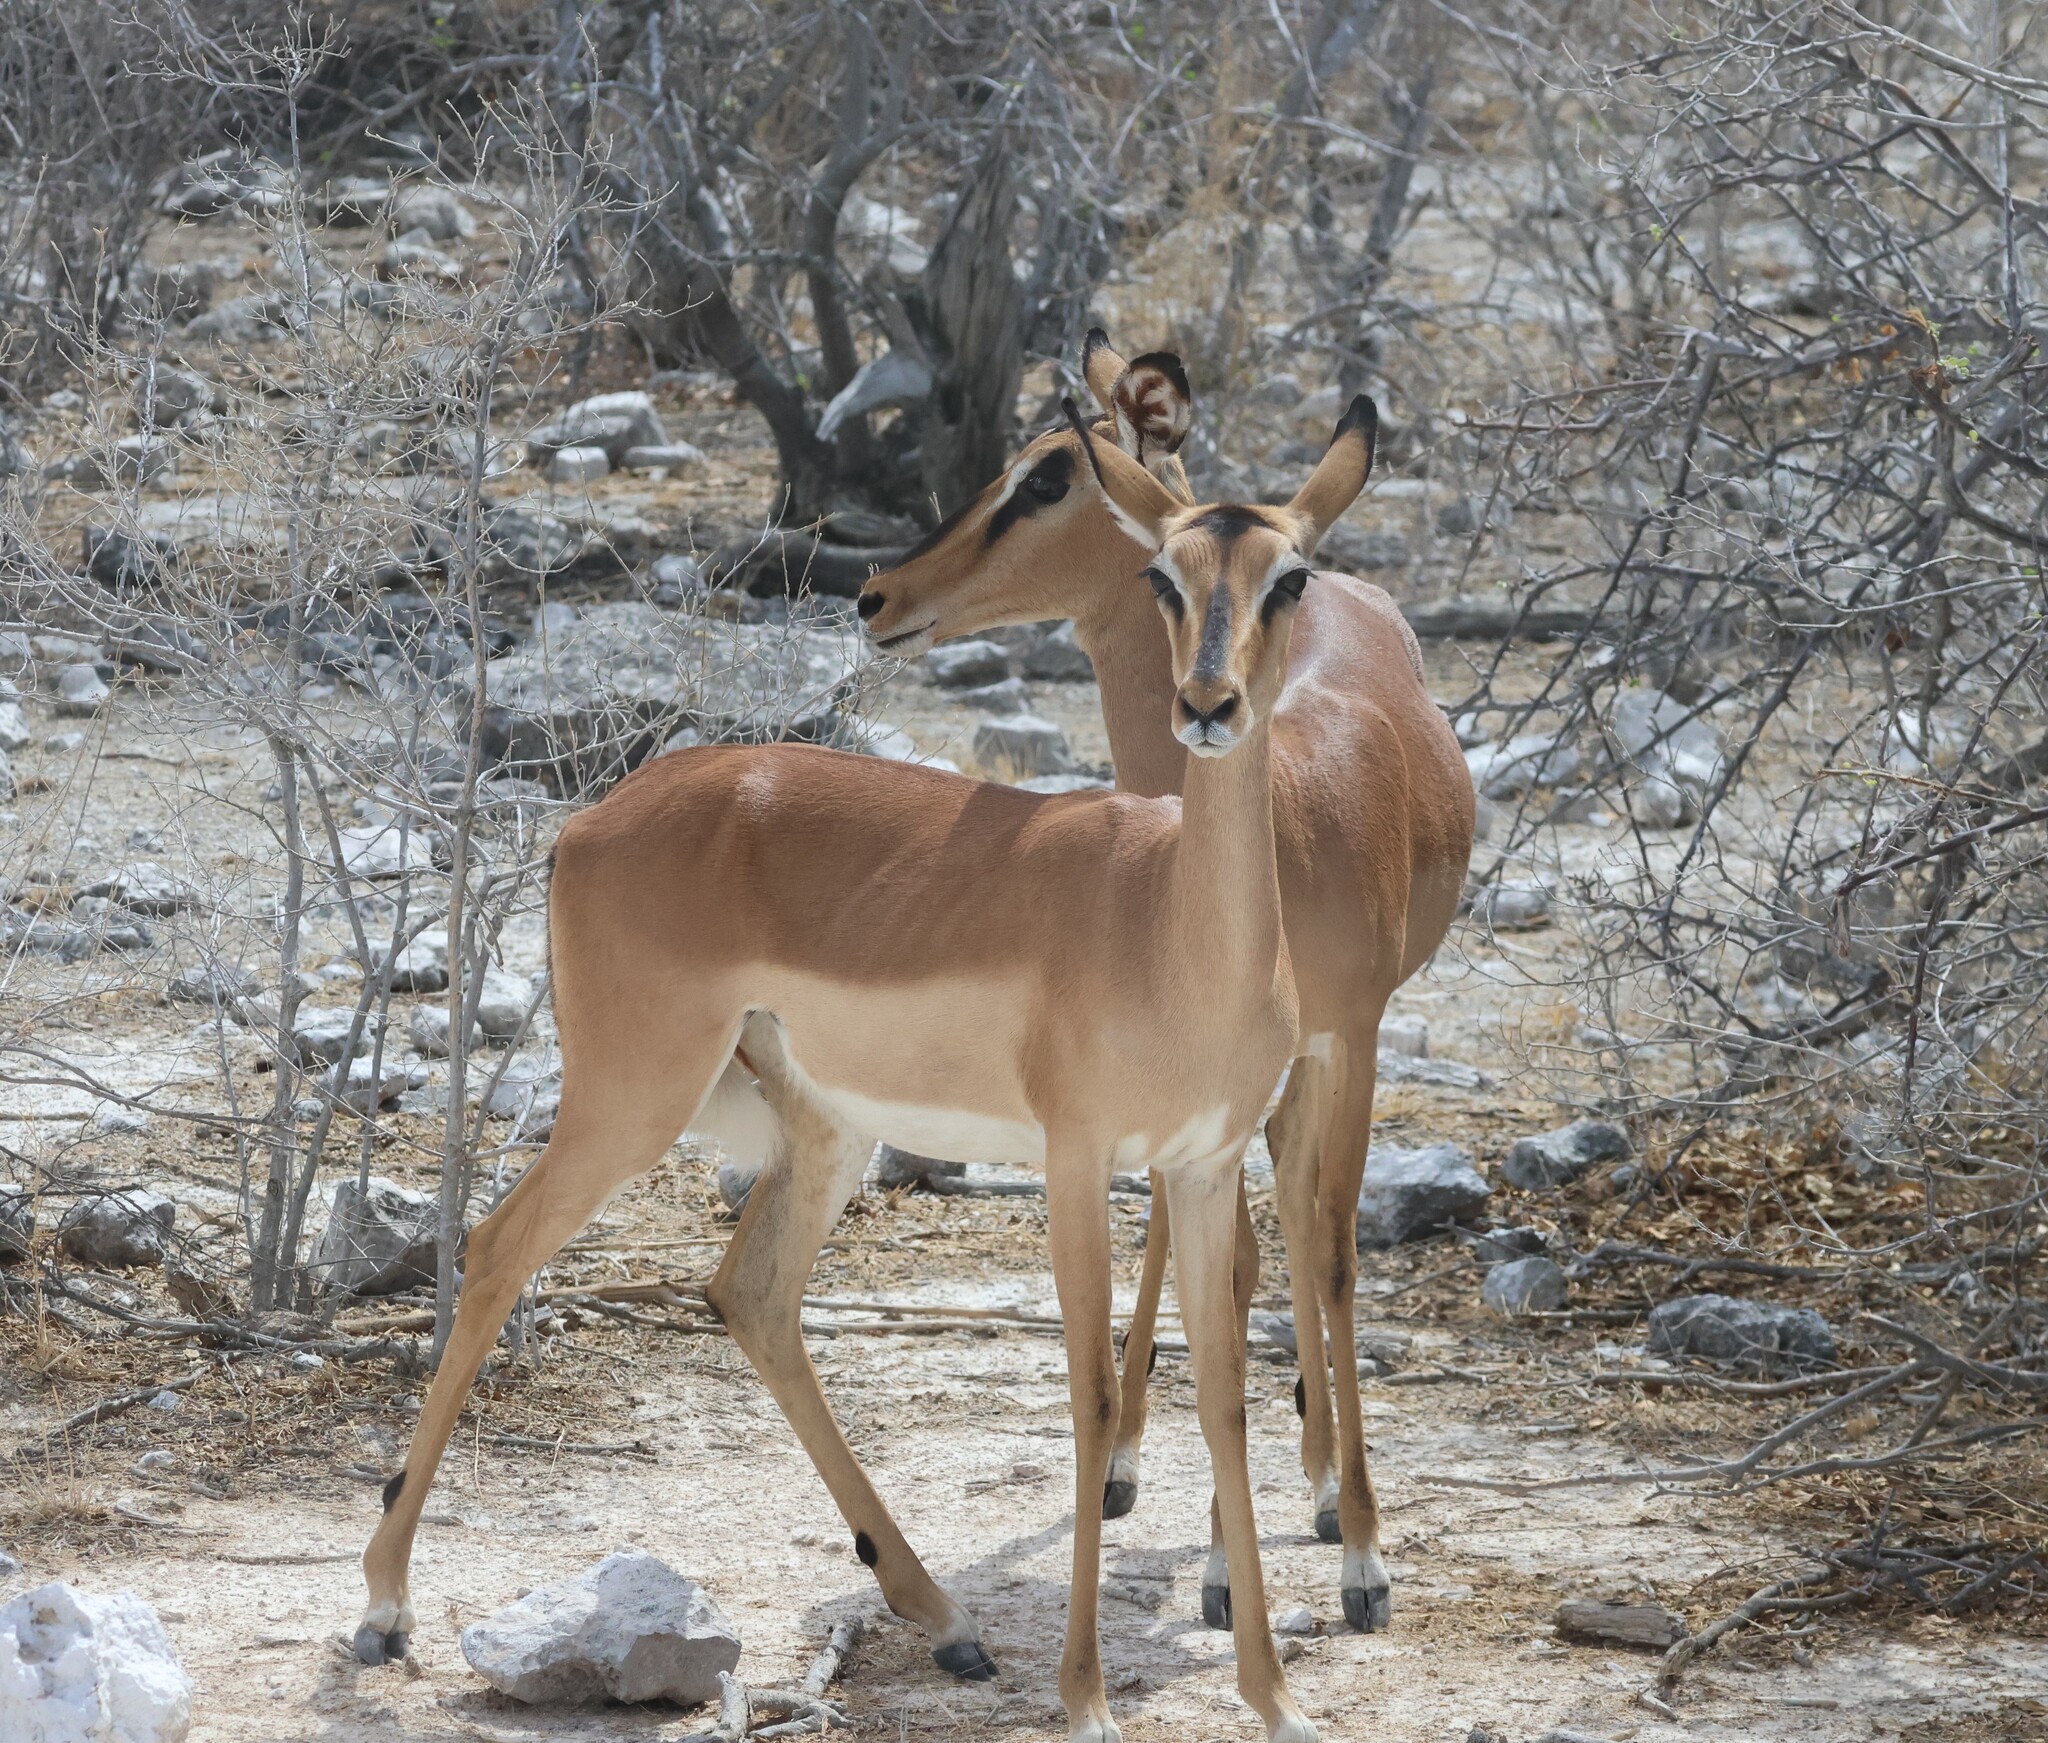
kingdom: Animalia
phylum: Chordata
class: Mammalia
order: Artiodactyla
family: Bovidae
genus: Aepyceros
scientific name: Aepyceros melampus
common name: Impala
